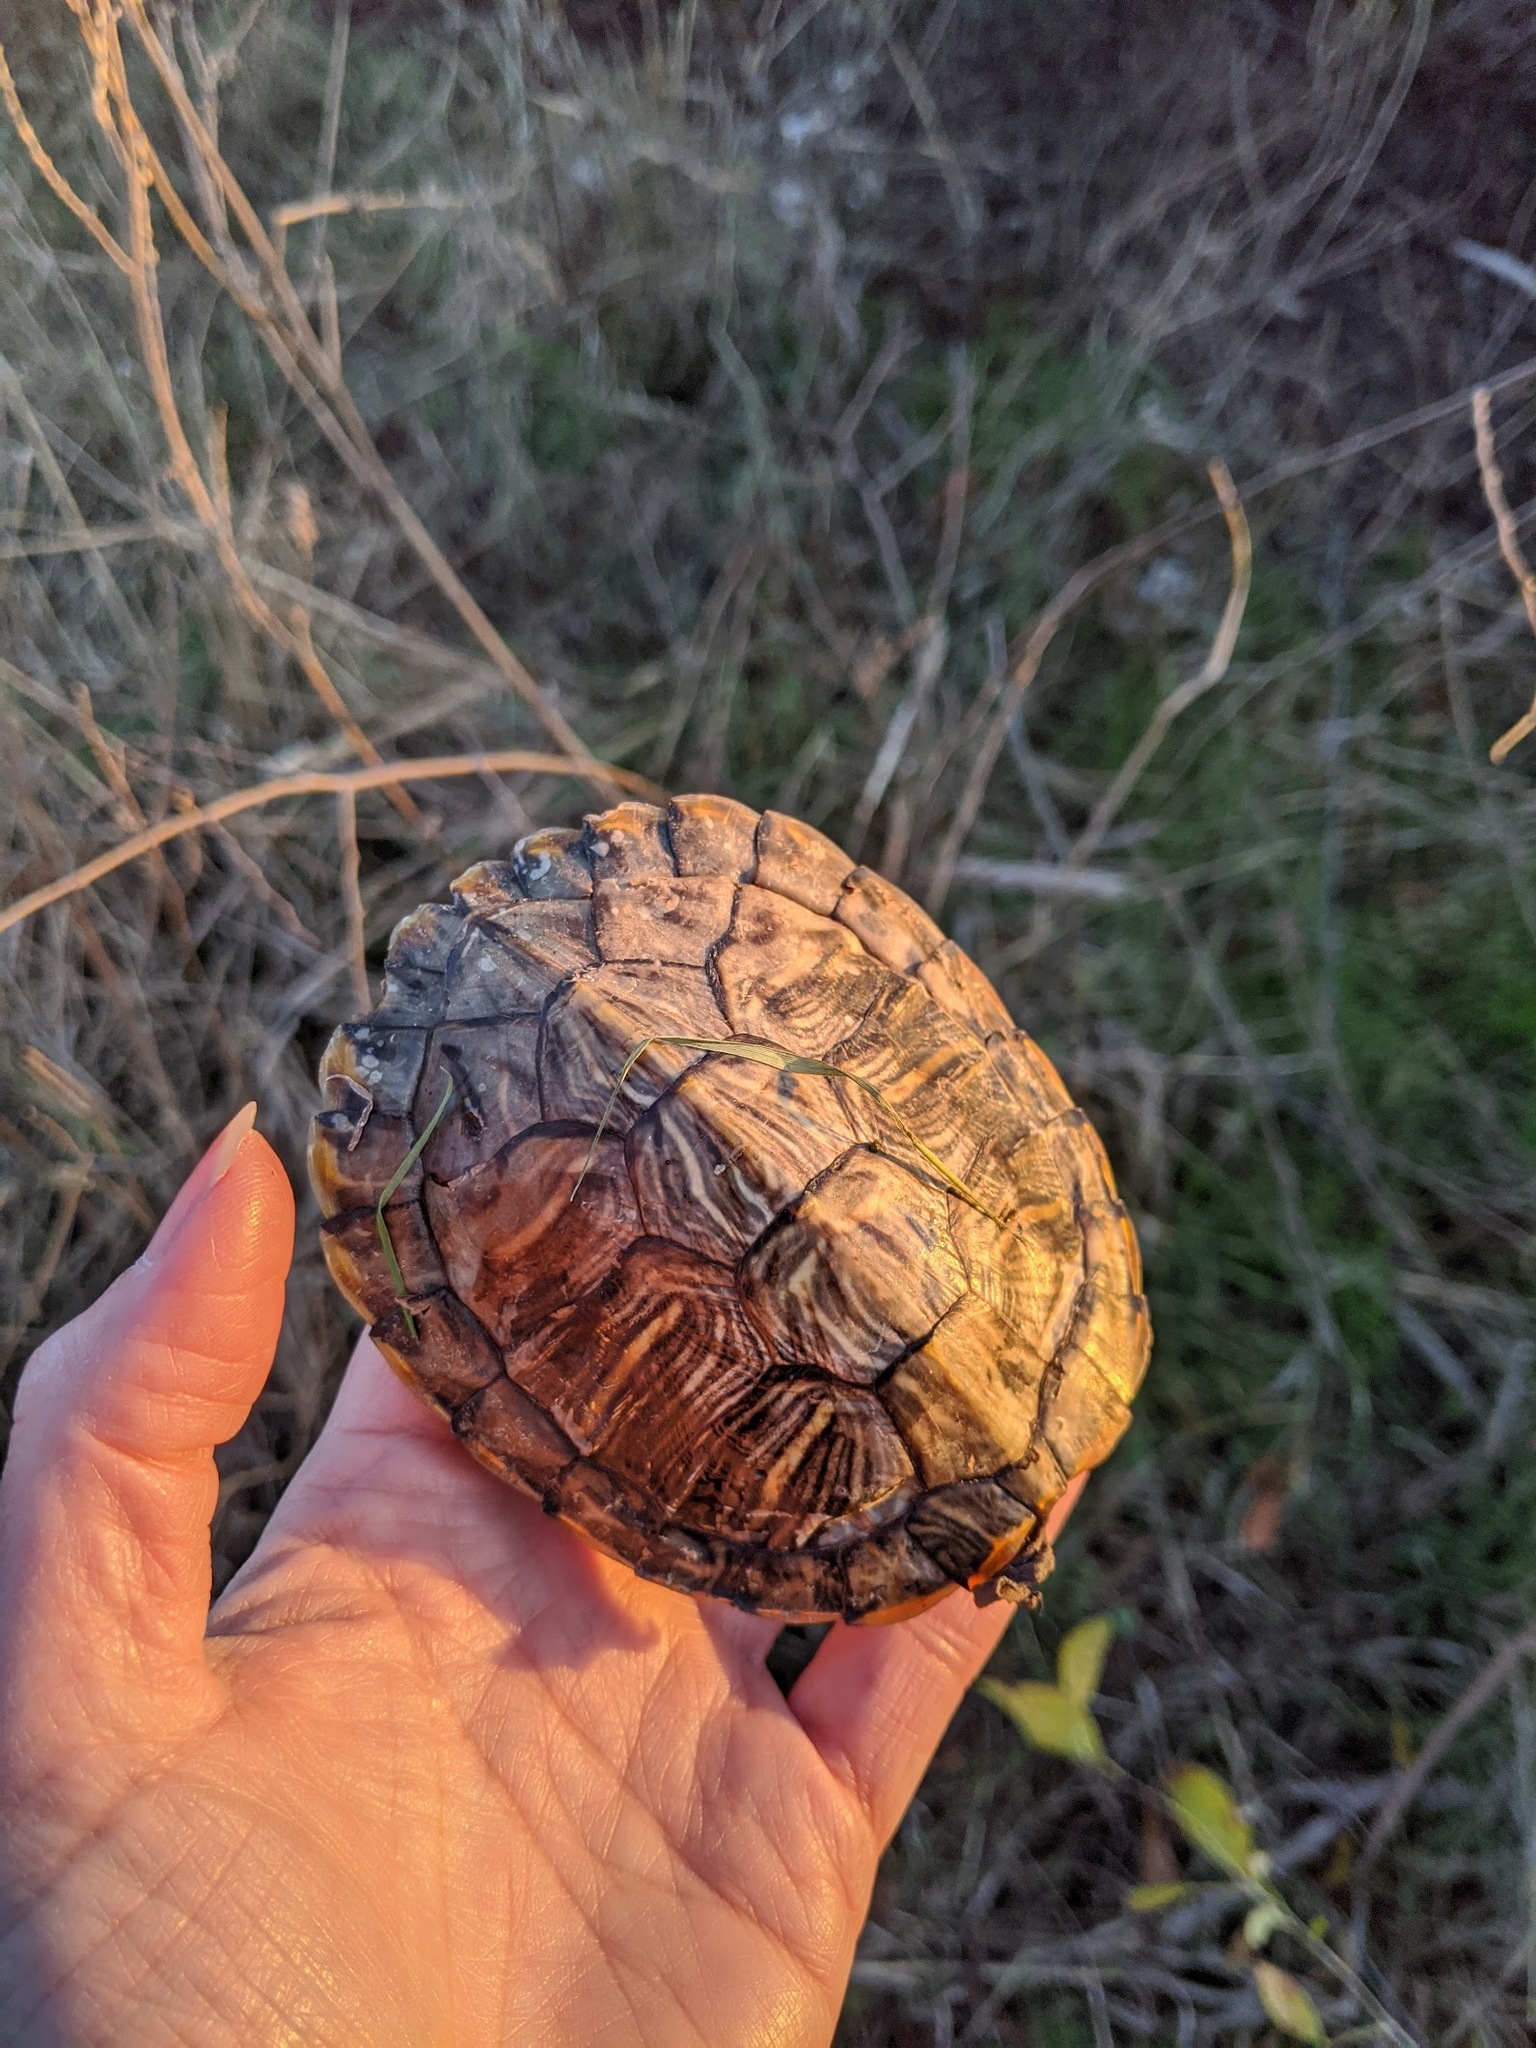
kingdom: Animalia
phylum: Chordata
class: Testudines
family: Emydidae
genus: Trachemys
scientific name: Trachemys scripta
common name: Slider
